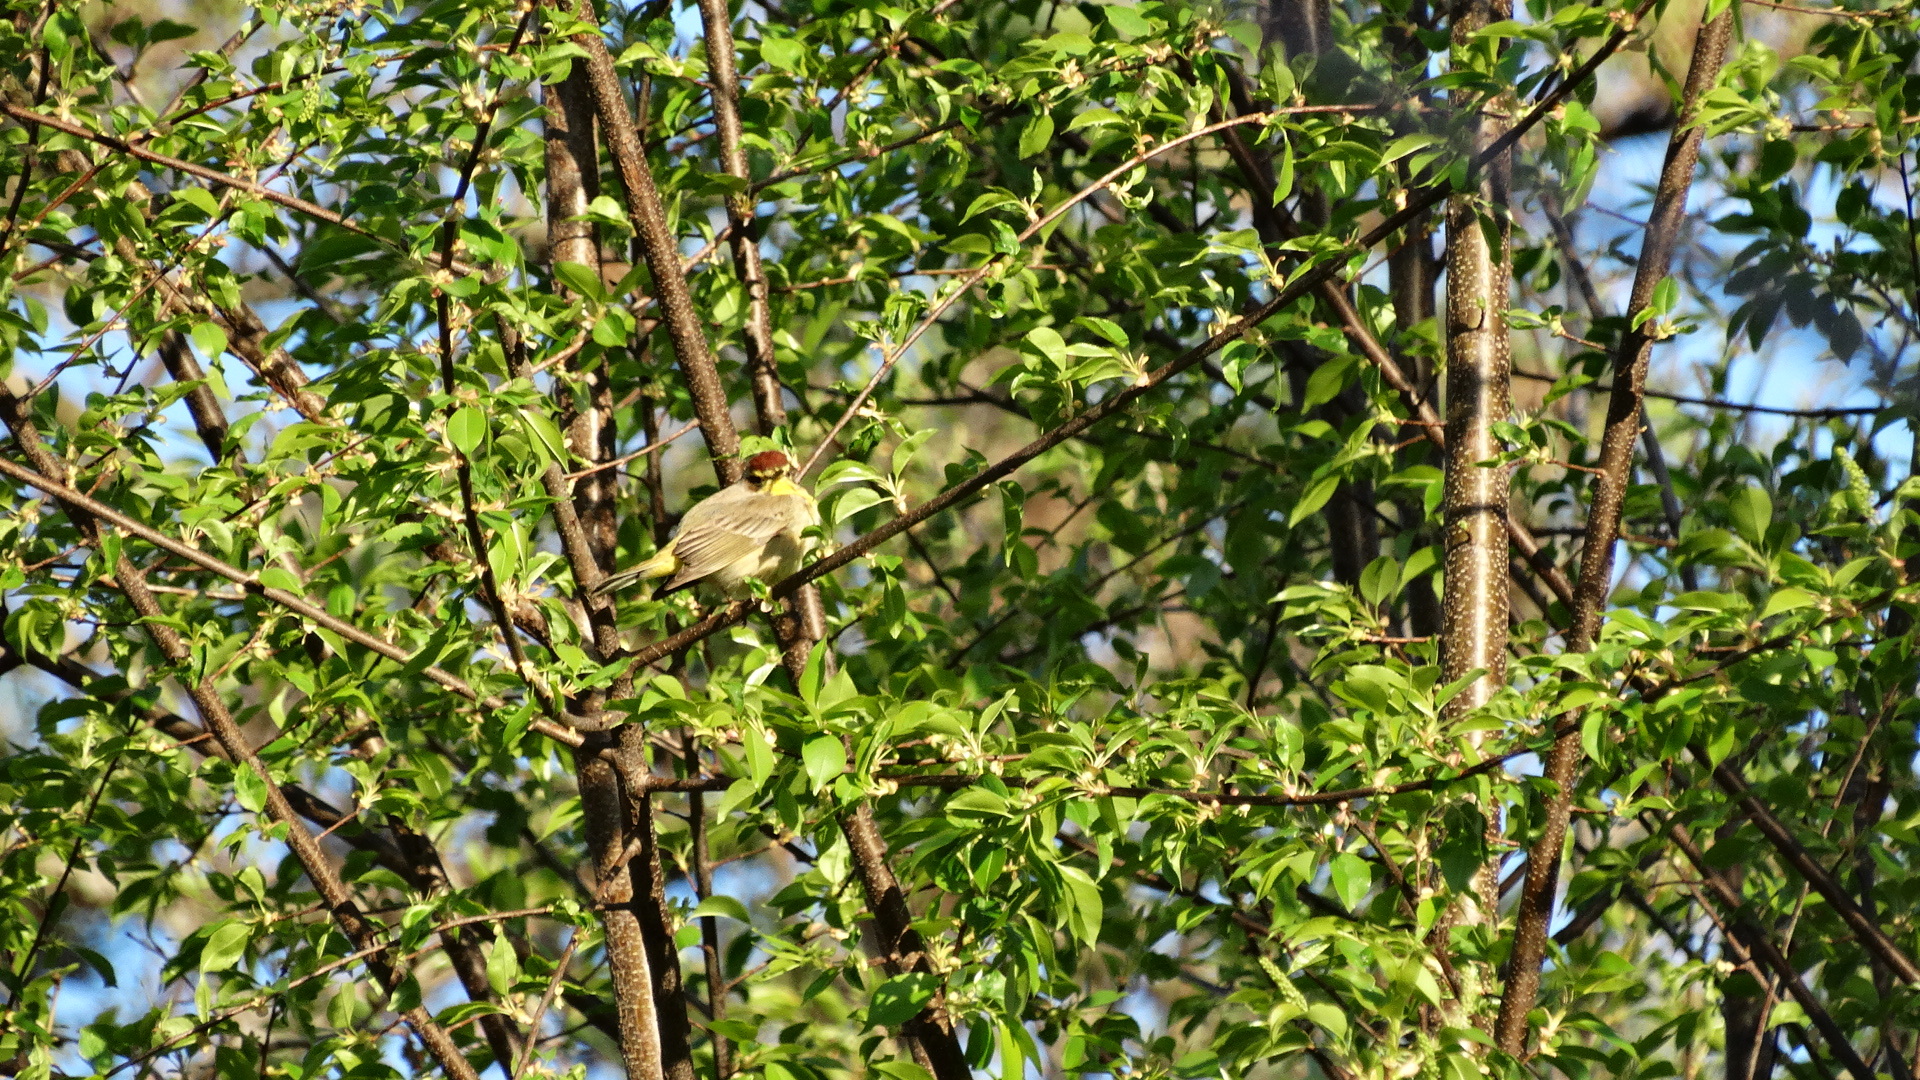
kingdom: Animalia
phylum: Chordata
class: Aves
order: Passeriformes
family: Parulidae
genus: Setophaga
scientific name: Setophaga palmarum
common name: Palm warbler
